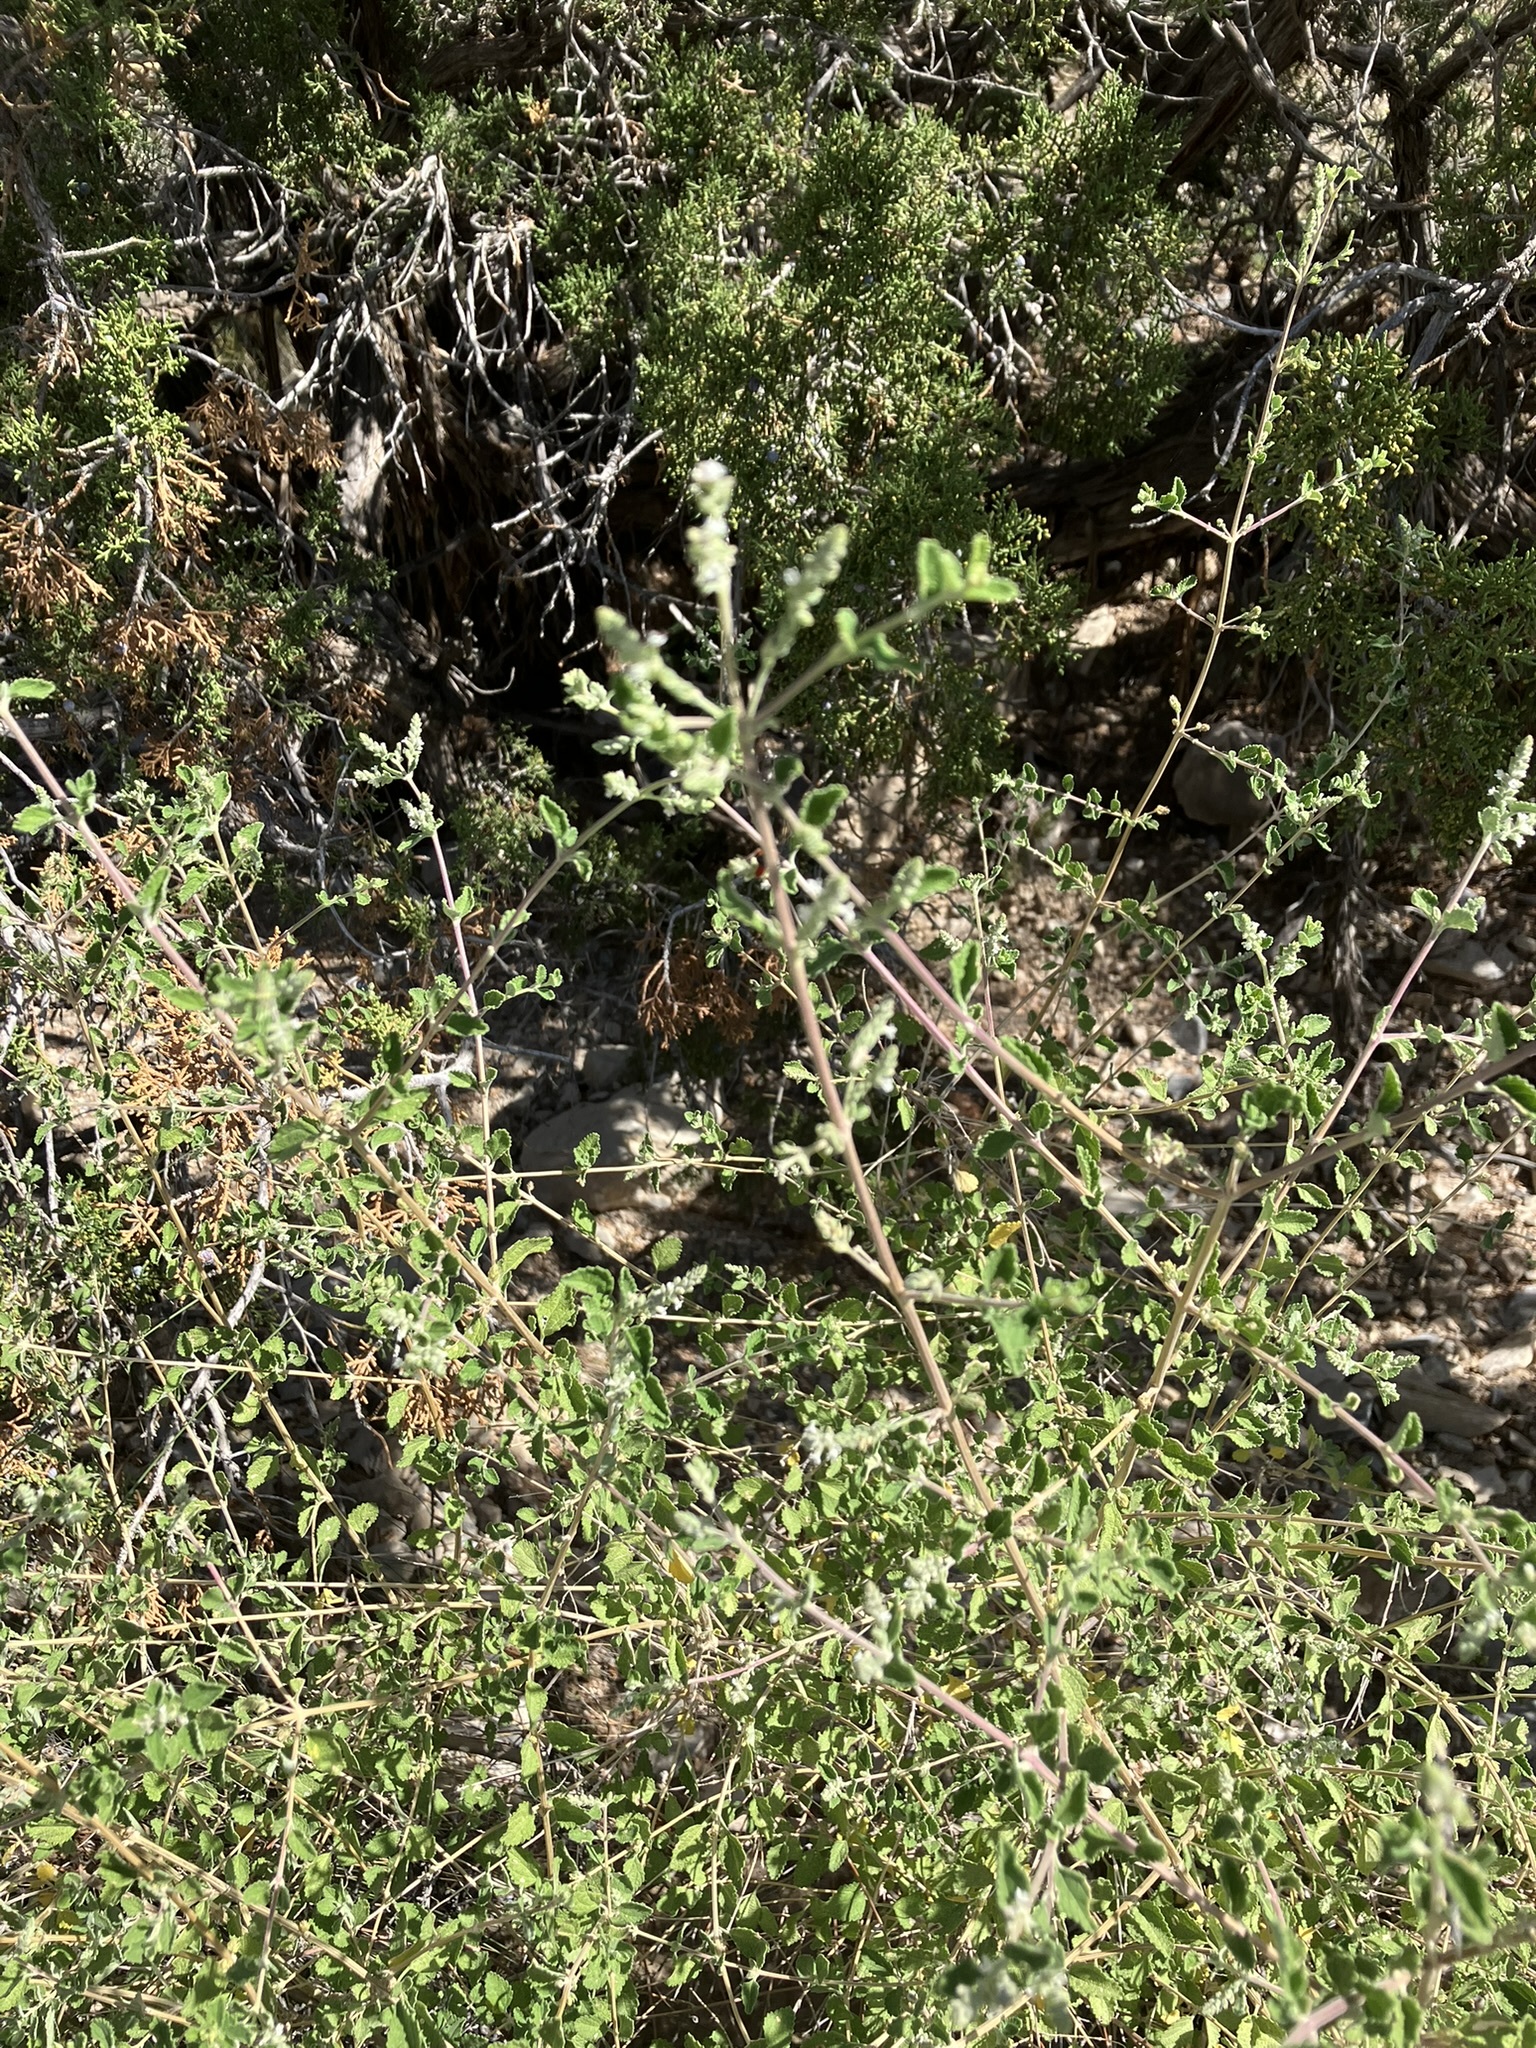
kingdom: Plantae
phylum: Tracheophyta
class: Magnoliopsida
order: Lamiales
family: Verbenaceae
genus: Aloysia
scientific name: Aloysia wrightii
